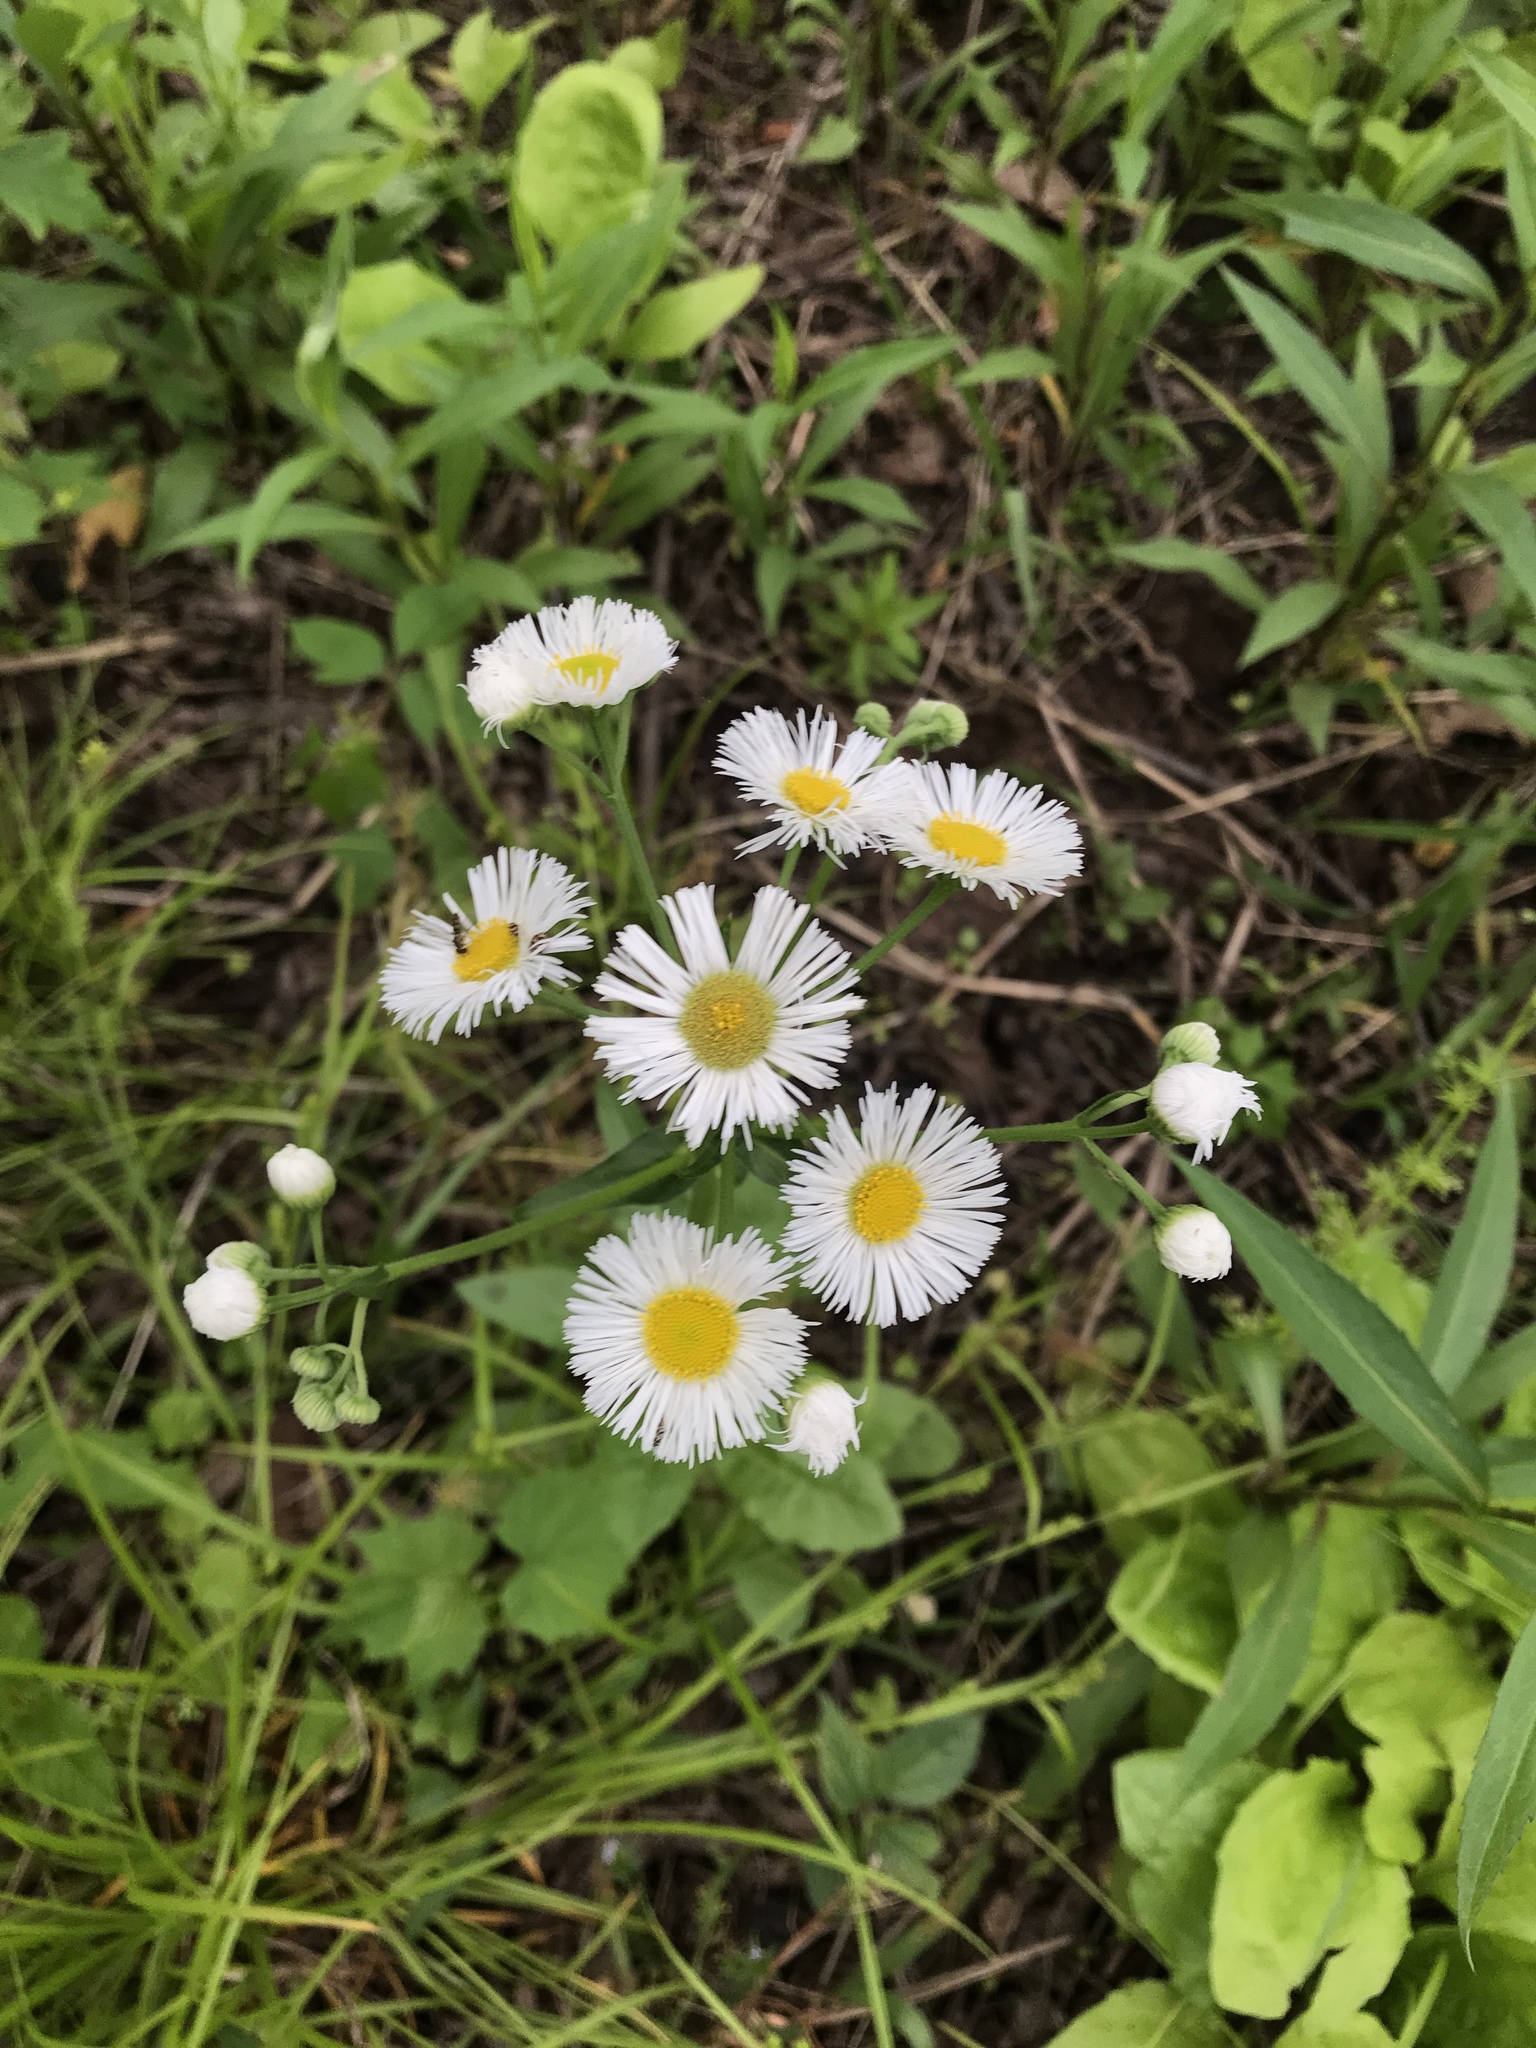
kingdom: Plantae
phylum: Tracheophyta
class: Magnoliopsida
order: Asterales
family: Asteraceae
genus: Erigeron
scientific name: Erigeron philadelphicus
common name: Robin's-plantain
